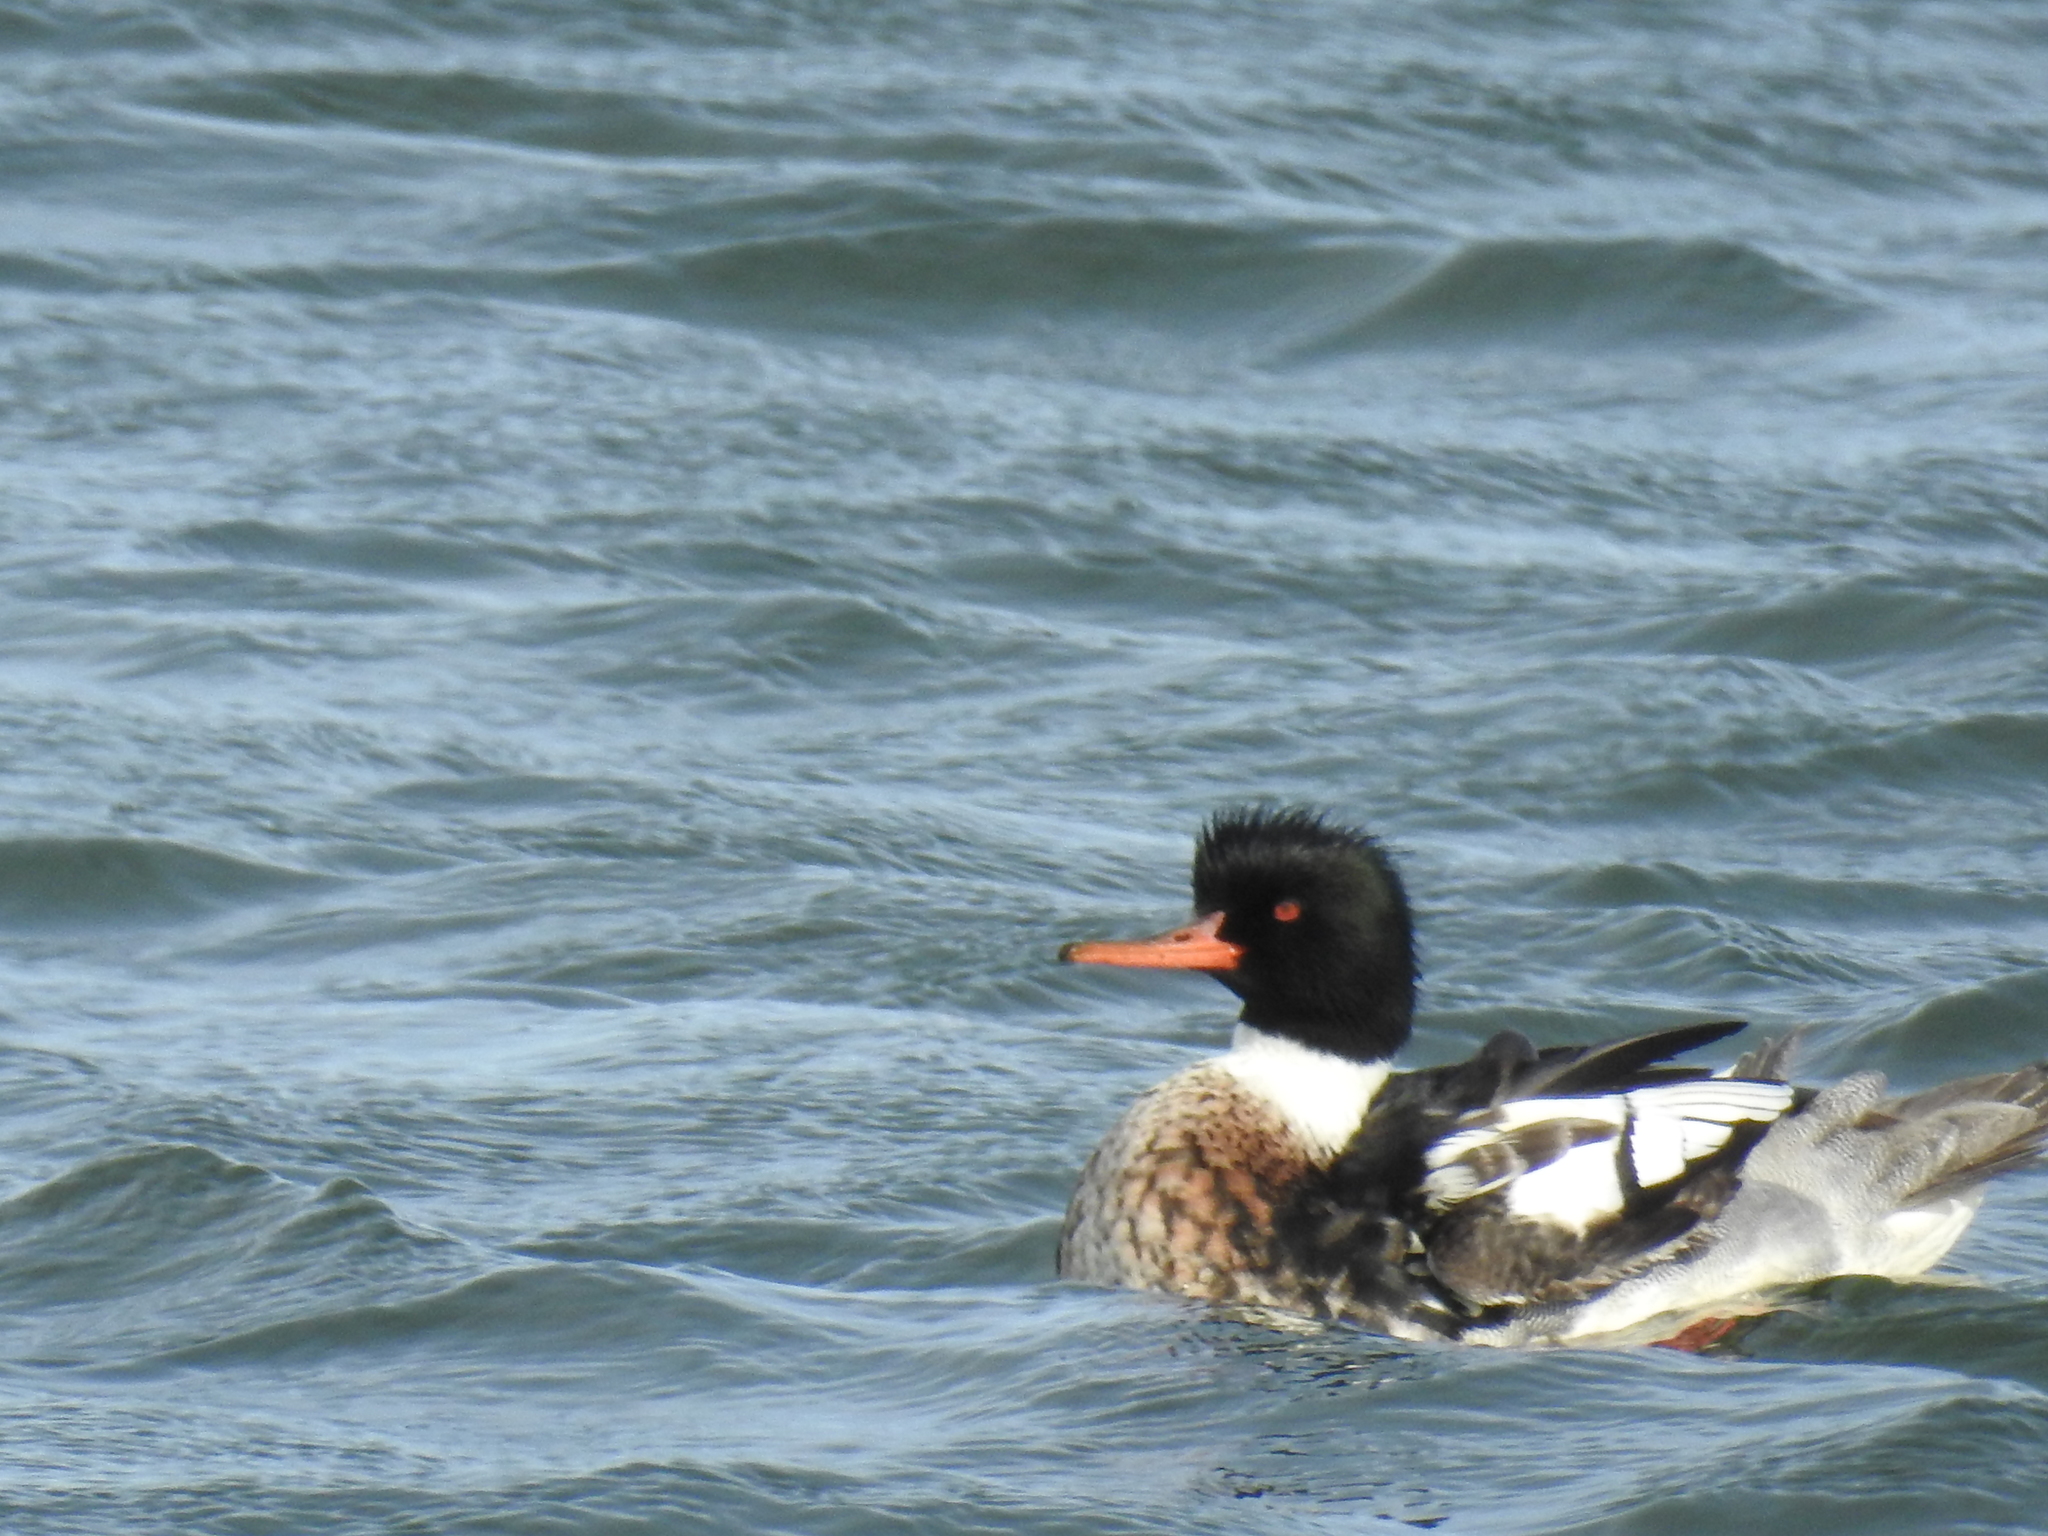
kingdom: Animalia
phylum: Chordata
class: Aves
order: Anseriformes
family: Anatidae
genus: Mergus
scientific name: Mergus serrator
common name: Red-breasted merganser
